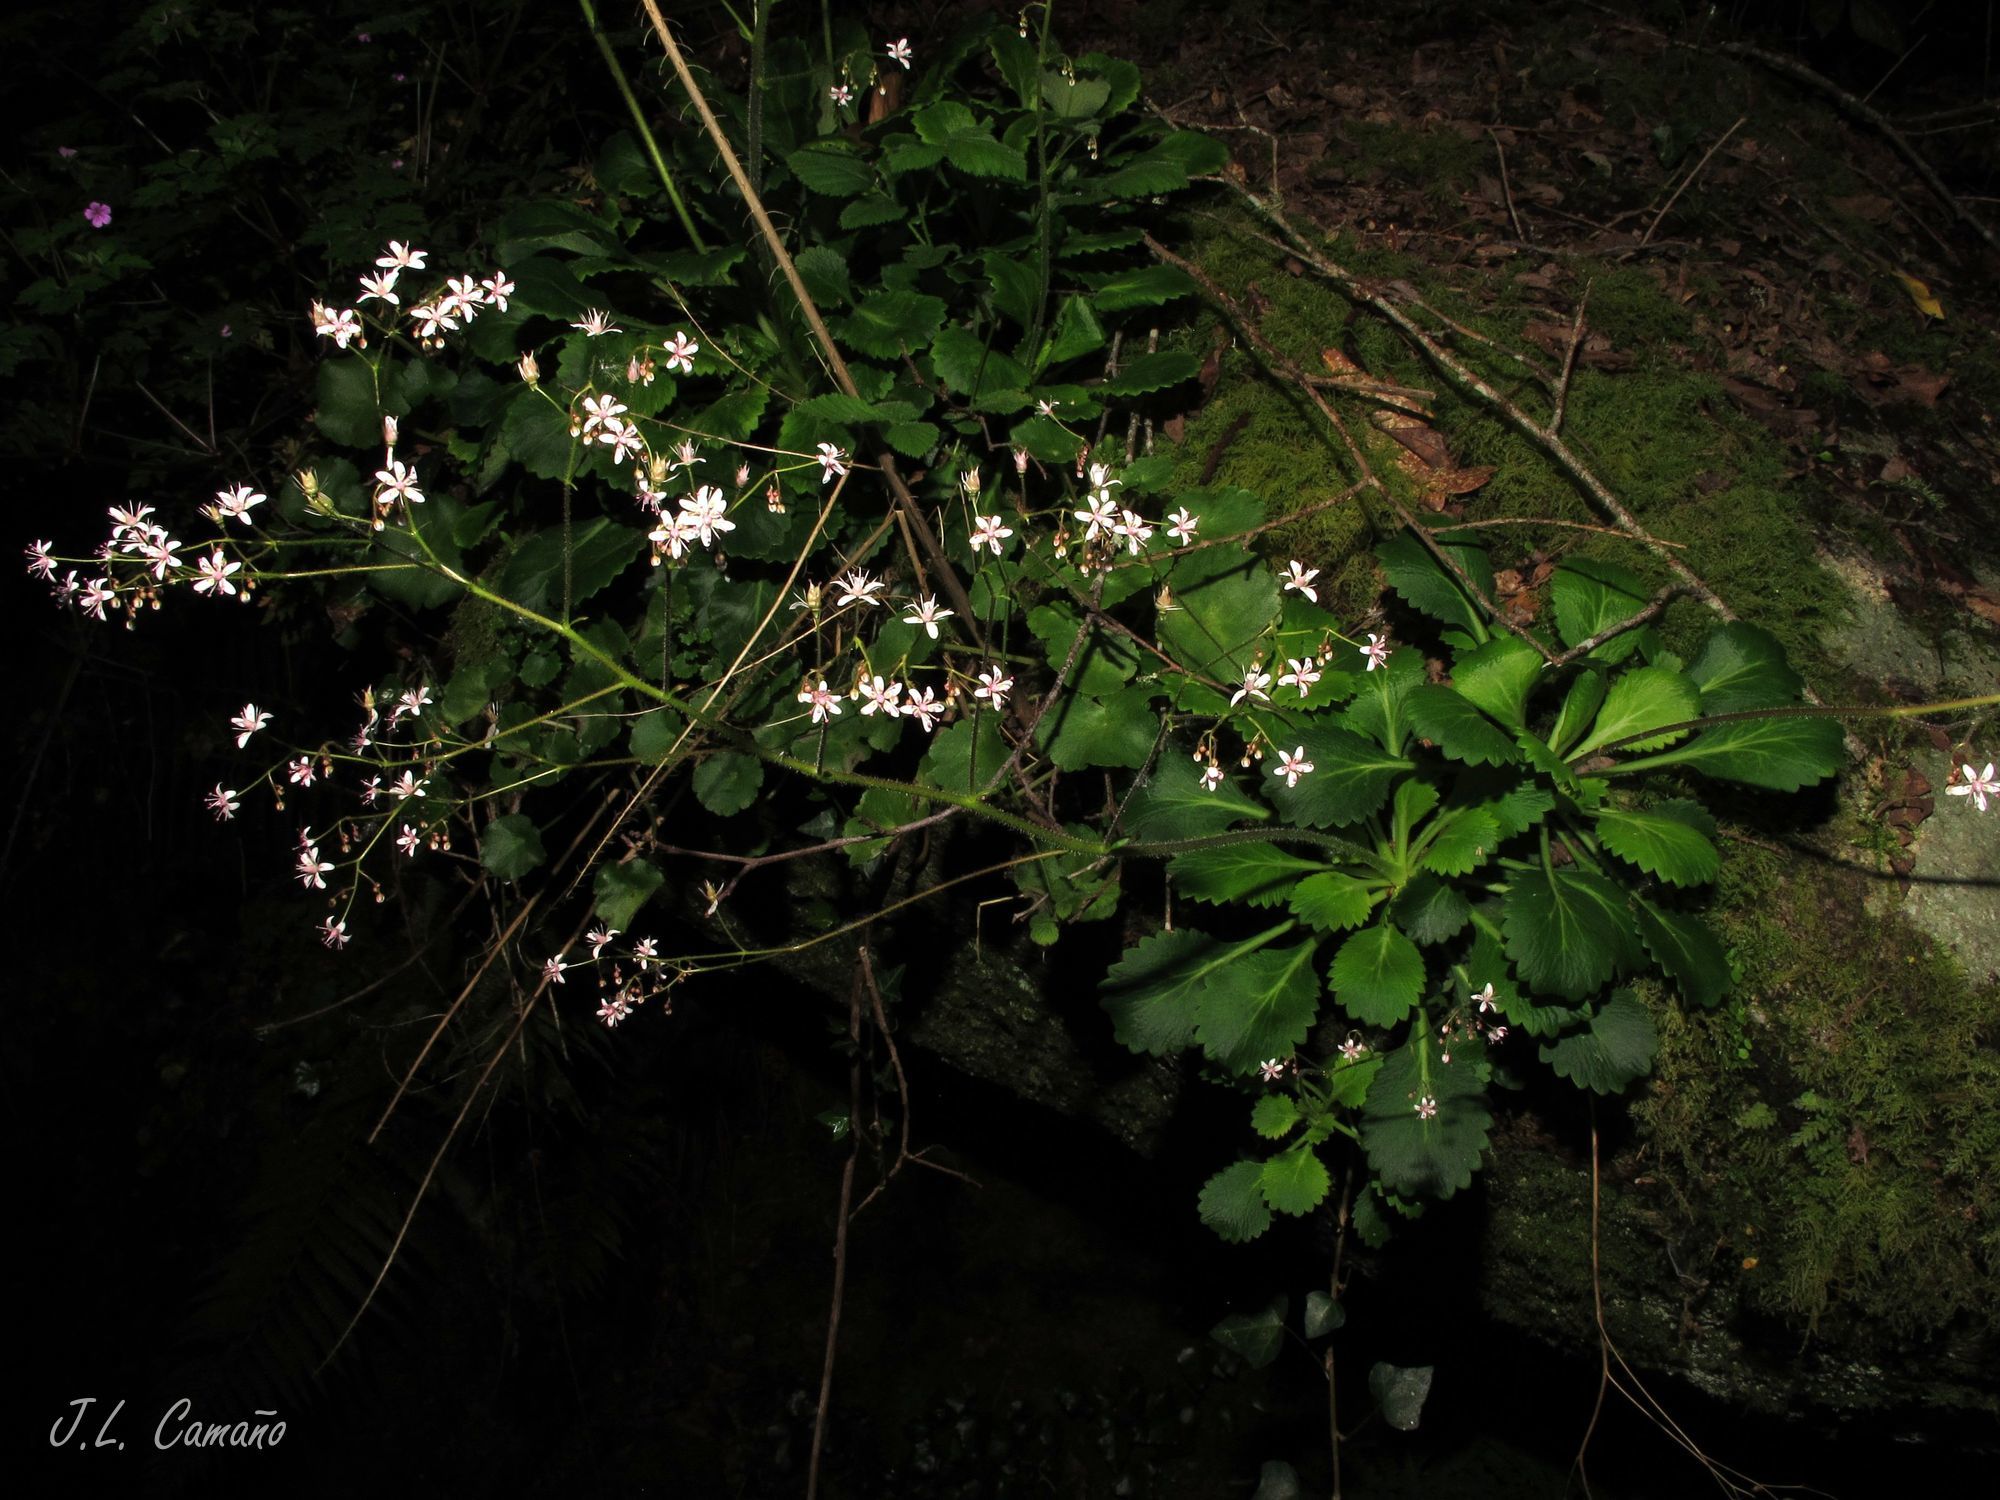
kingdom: Plantae
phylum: Tracheophyta
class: Magnoliopsida
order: Saxifragales
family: Saxifragaceae
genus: Saxifraga
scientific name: Saxifraga spathularis
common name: St patrick's-cabbage
